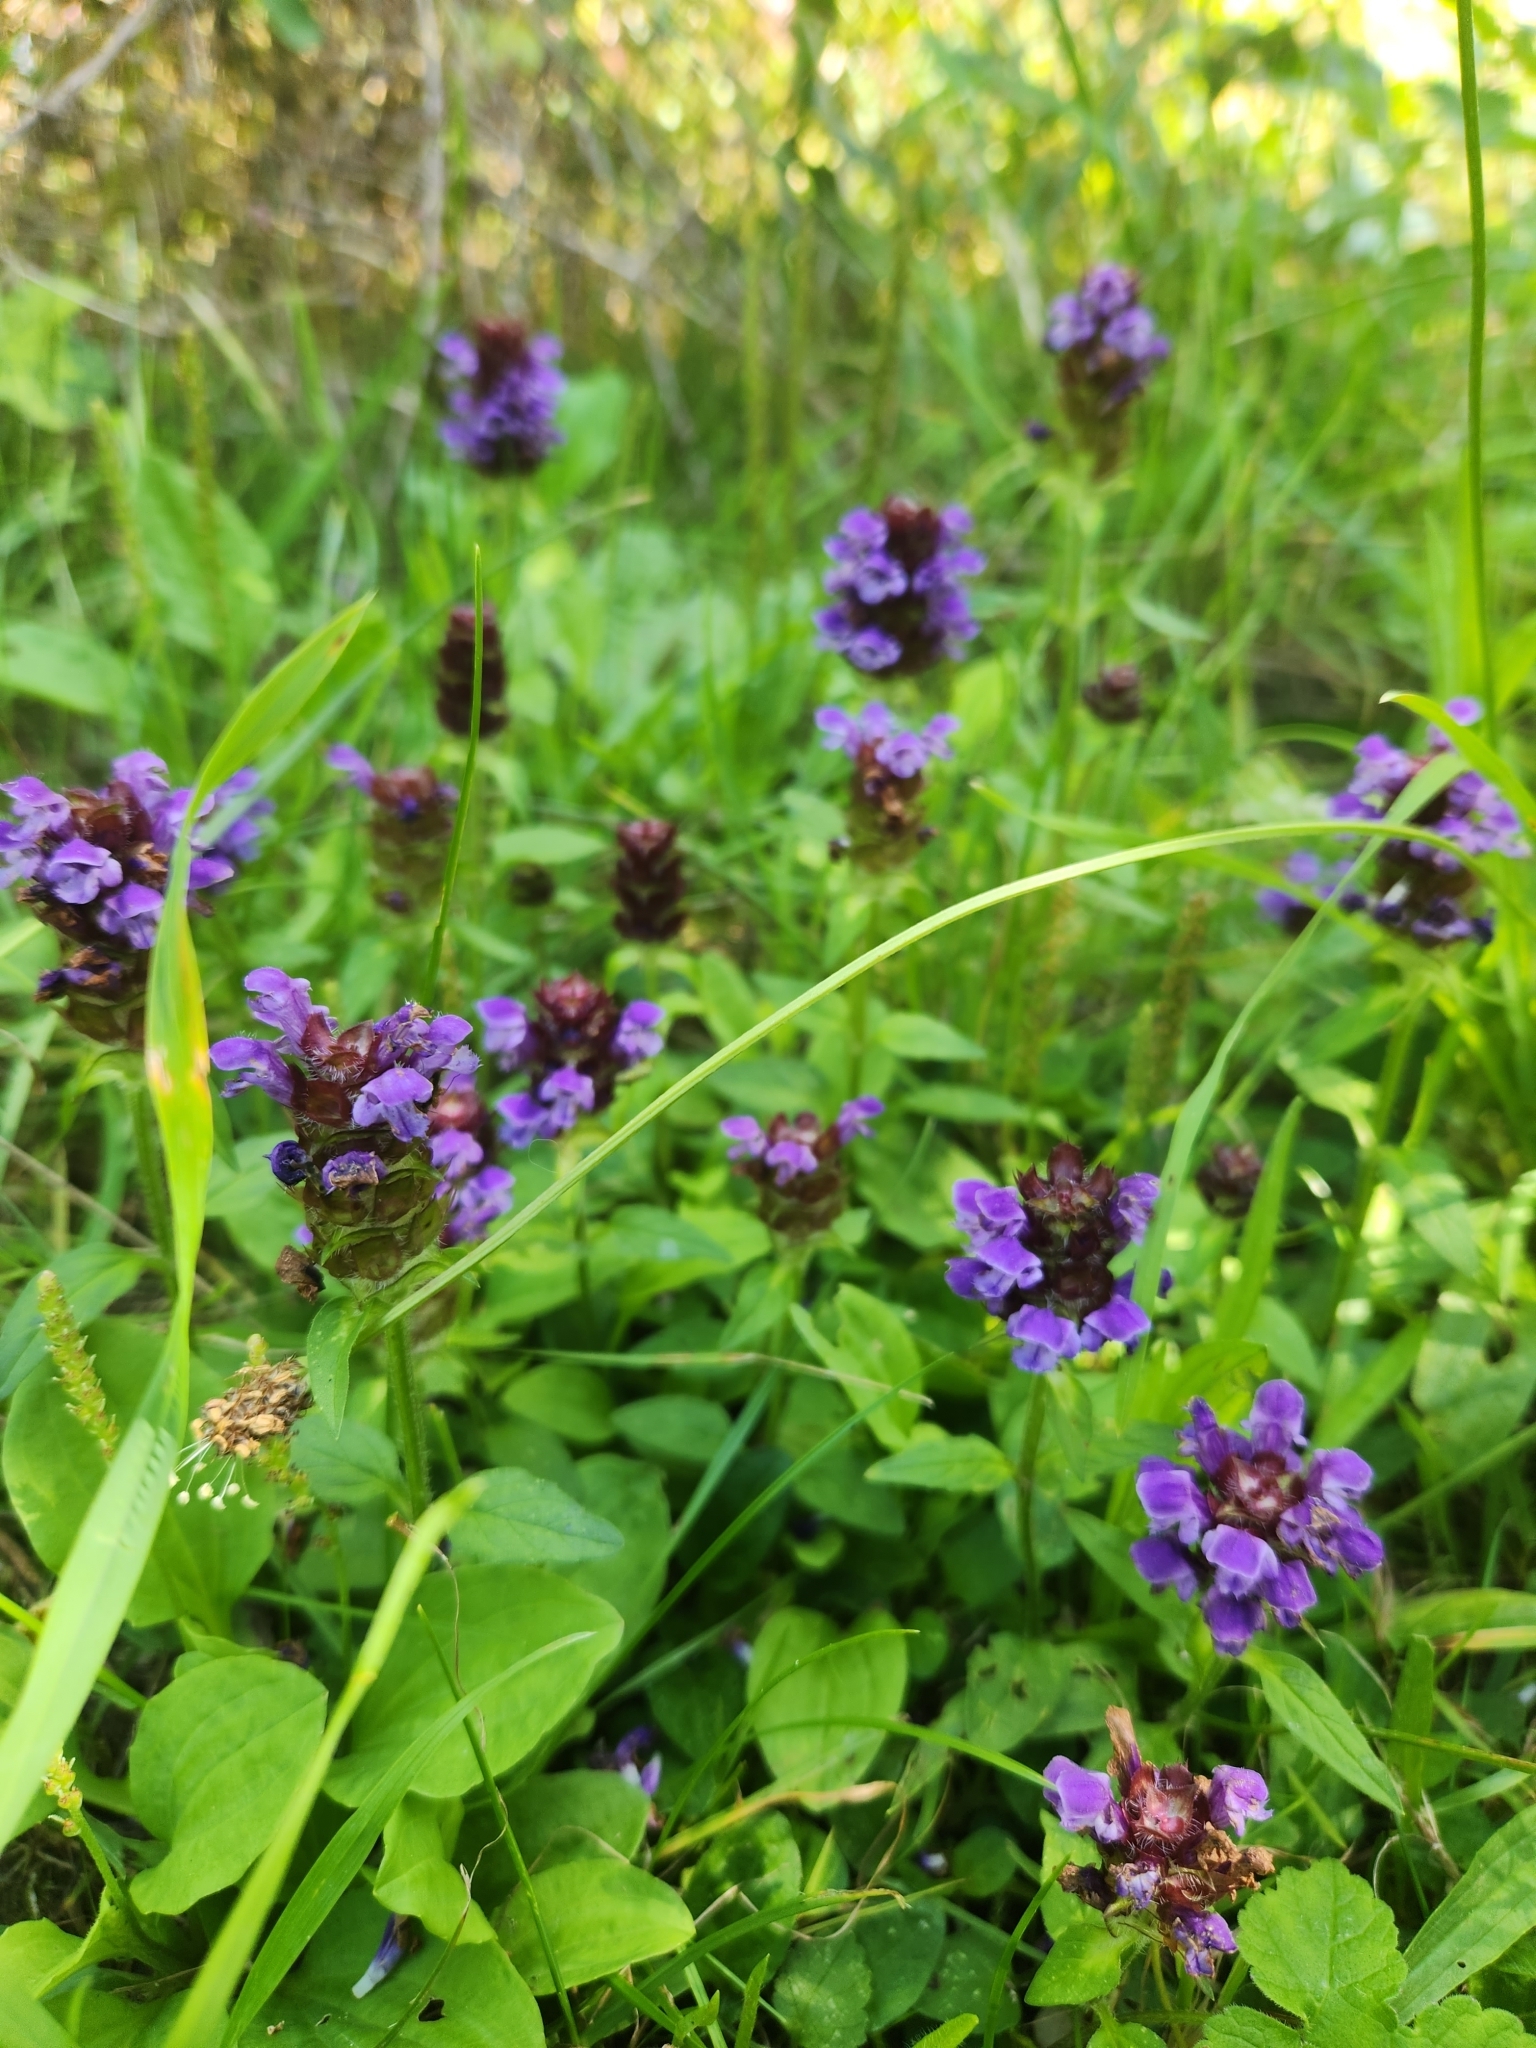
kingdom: Plantae
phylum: Tracheophyta
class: Magnoliopsida
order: Lamiales
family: Lamiaceae
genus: Prunella
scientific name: Prunella vulgaris
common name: Heal-all
